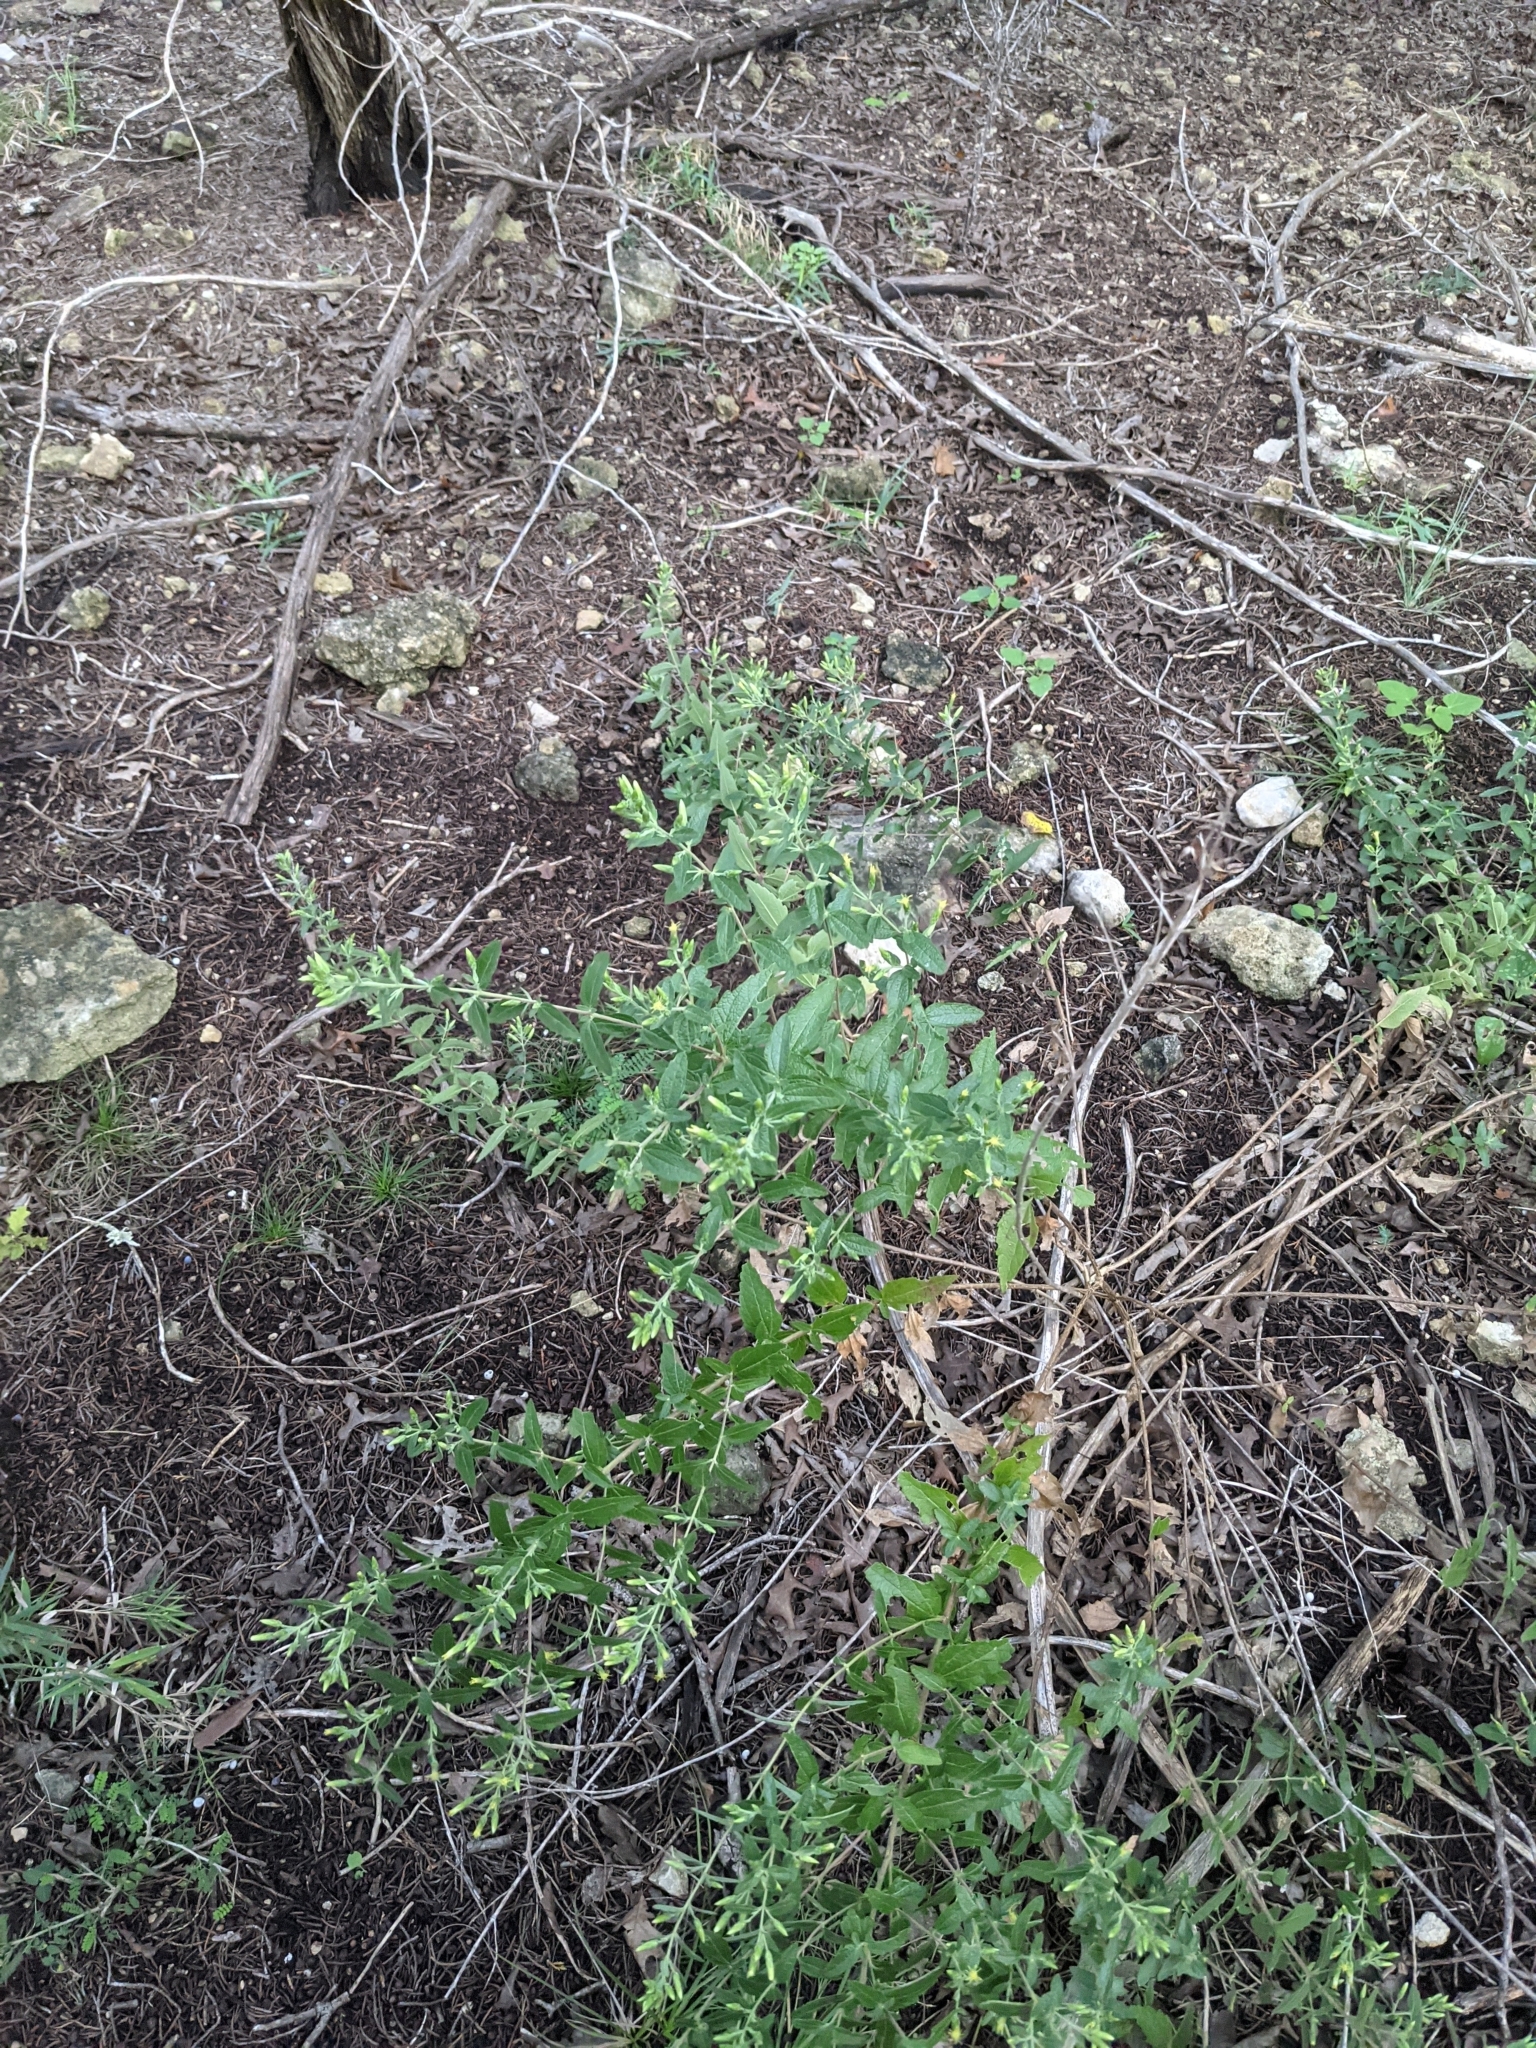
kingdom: Plantae
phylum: Tracheophyta
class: Magnoliopsida
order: Asterales
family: Asteraceae
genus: Brickellia
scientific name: Brickellia cylindracea
